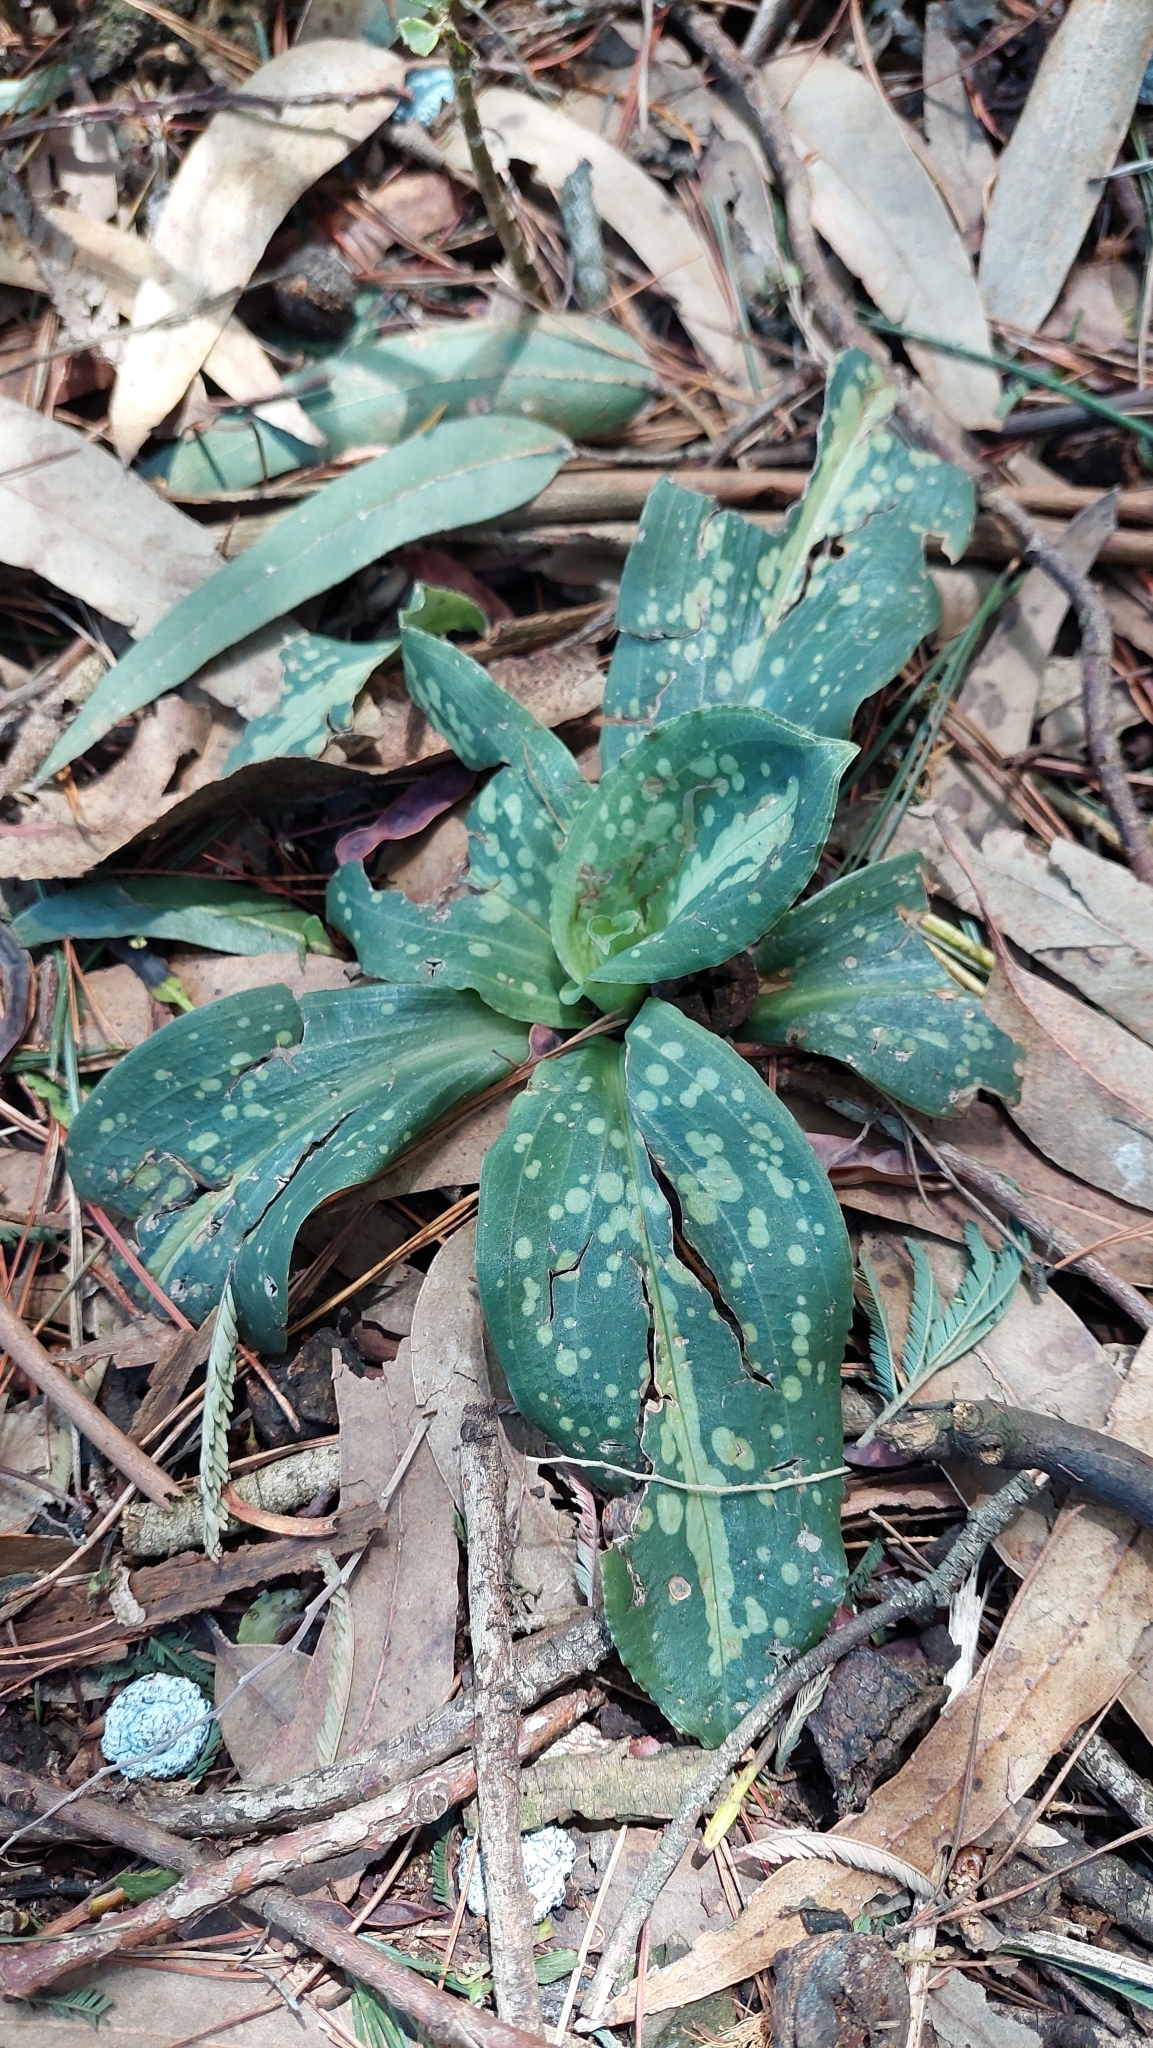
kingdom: Plantae
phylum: Tracheophyta
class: Liliopsida
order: Asparagales
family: Orchidaceae
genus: Stenorrhynchos
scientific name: Stenorrhynchos albidomaculatum
